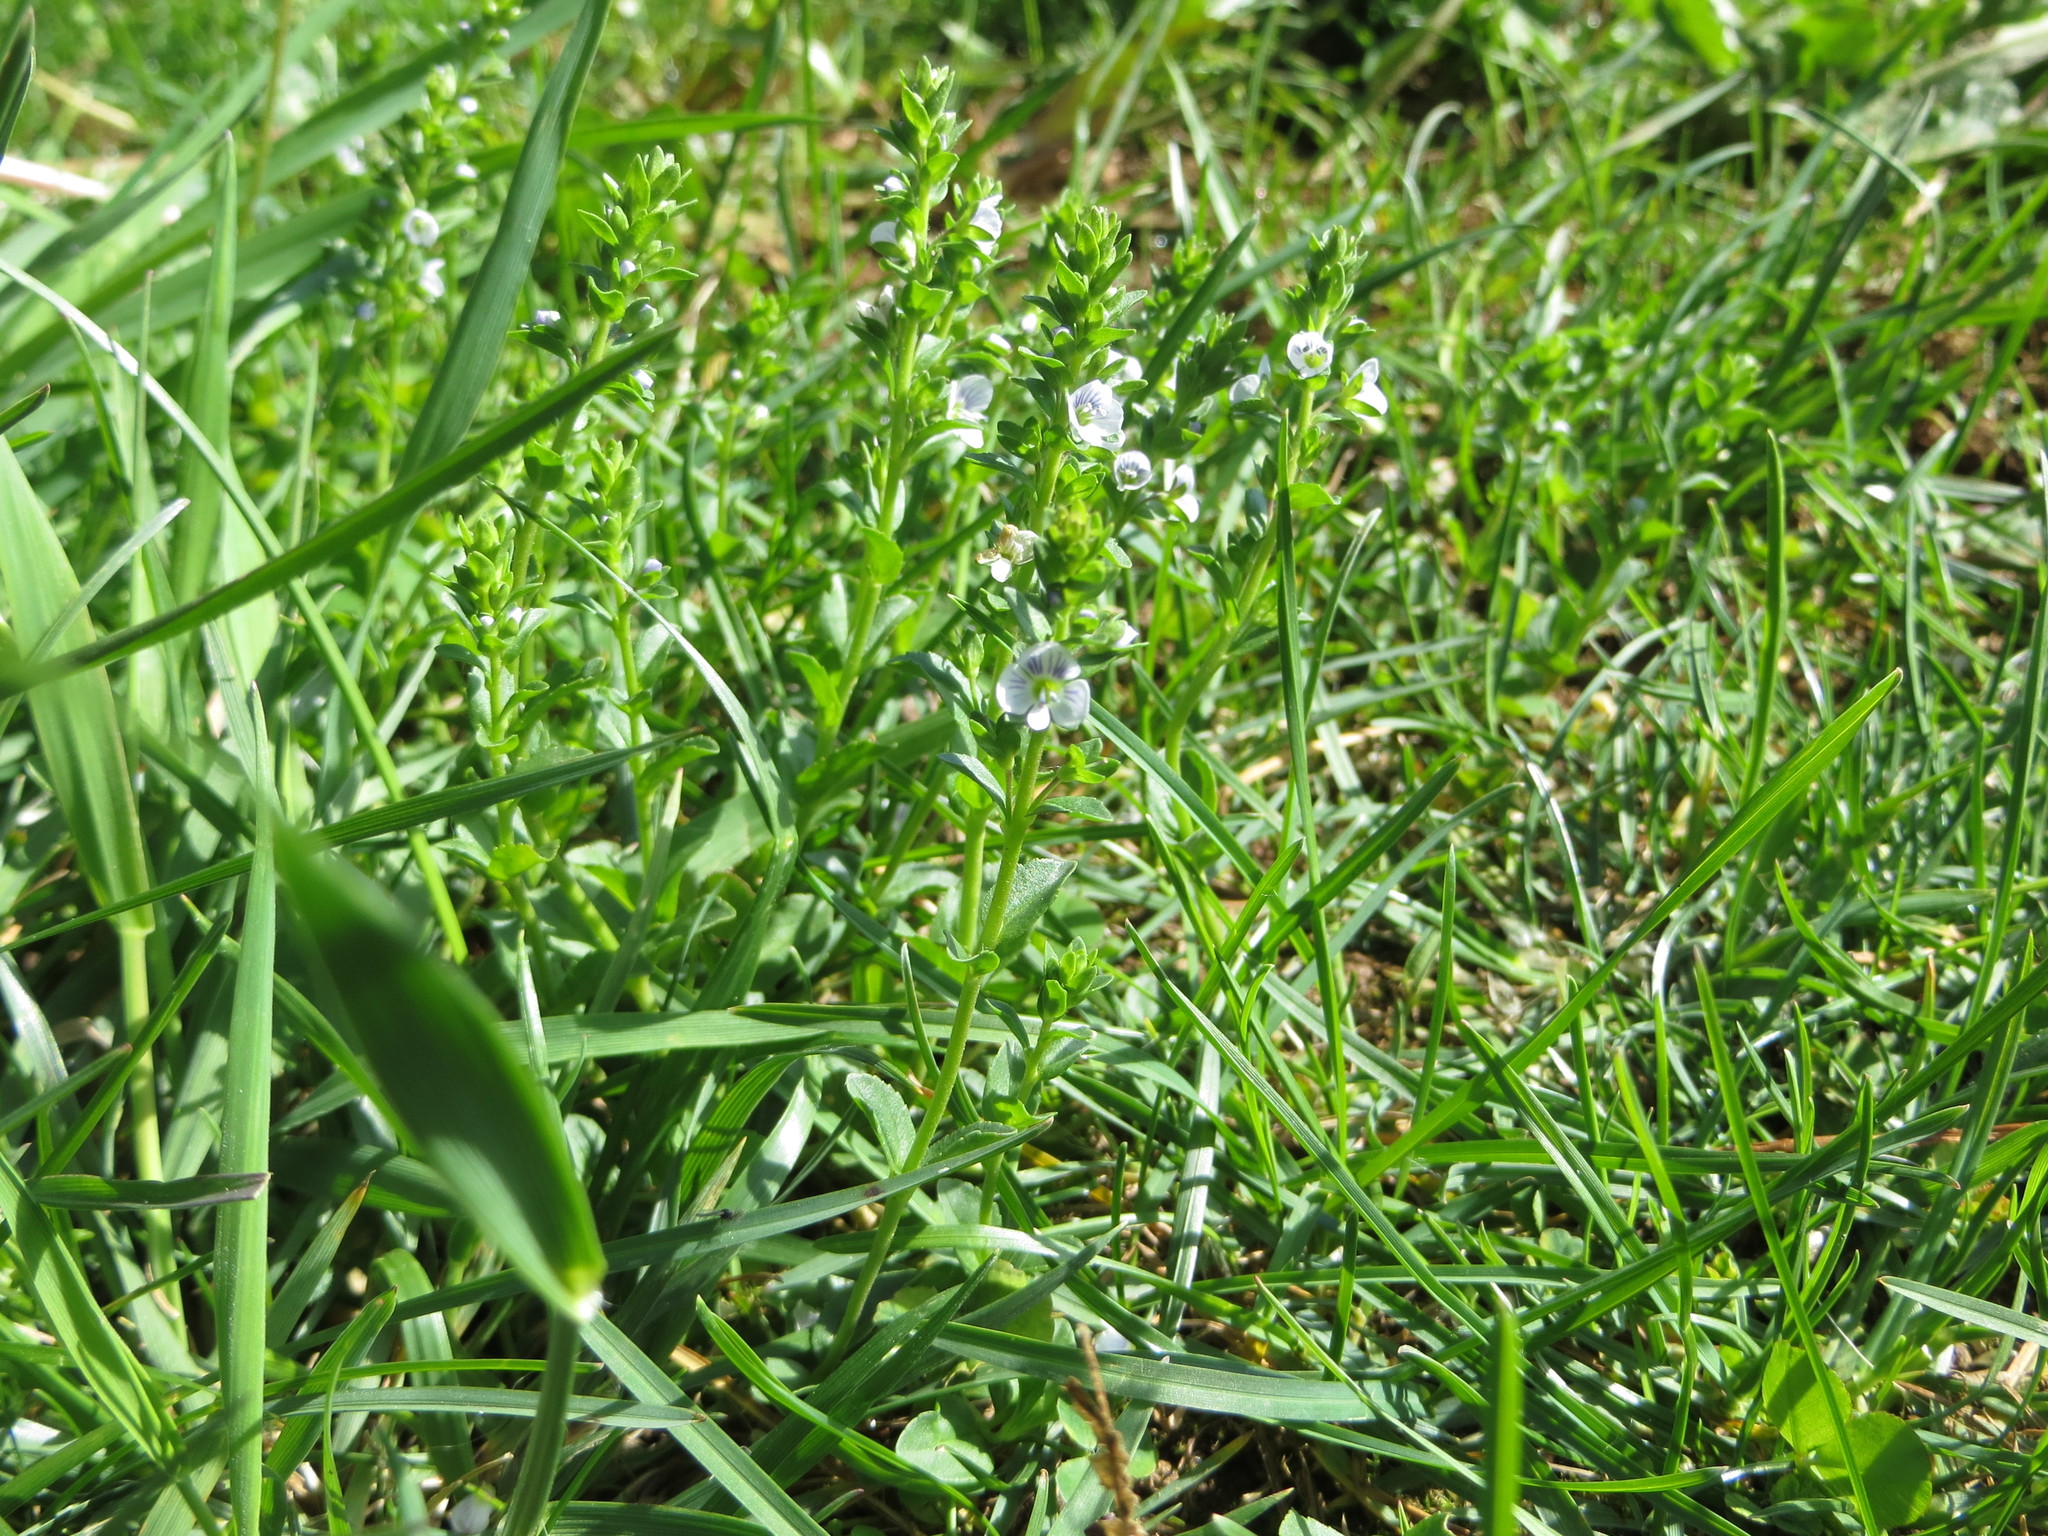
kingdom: Plantae
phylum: Tracheophyta
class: Magnoliopsida
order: Lamiales
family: Plantaginaceae
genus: Veronica
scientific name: Veronica serpyllifolia
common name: Thyme-leaved speedwell
